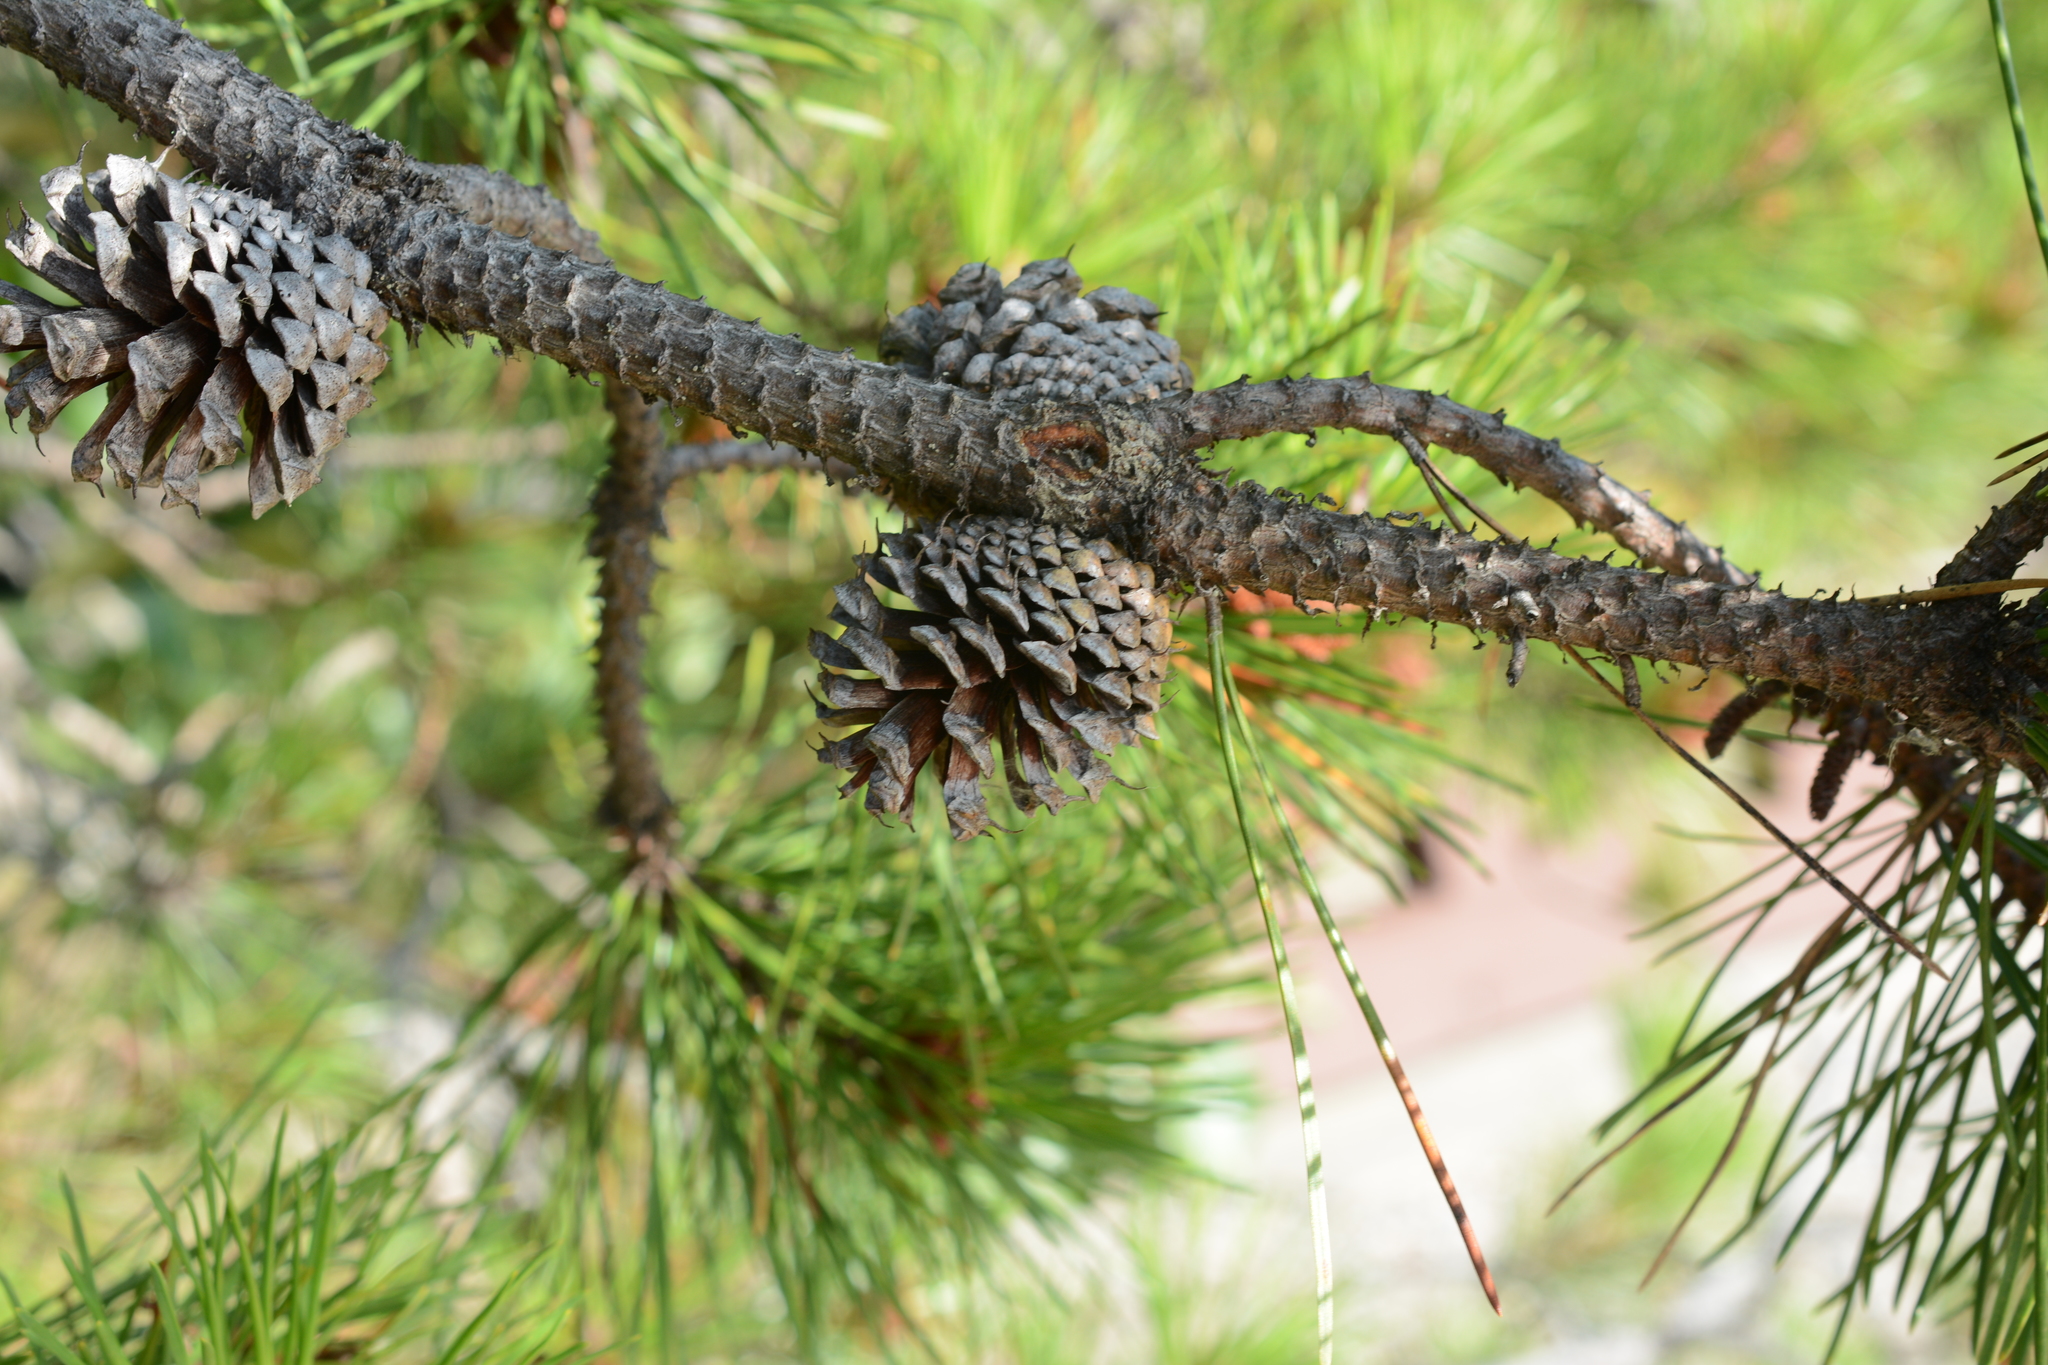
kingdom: Plantae
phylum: Tracheophyta
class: Pinopsida
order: Pinales
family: Pinaceae
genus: Pinus
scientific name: Pinus contorta
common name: Lodgepole pine
